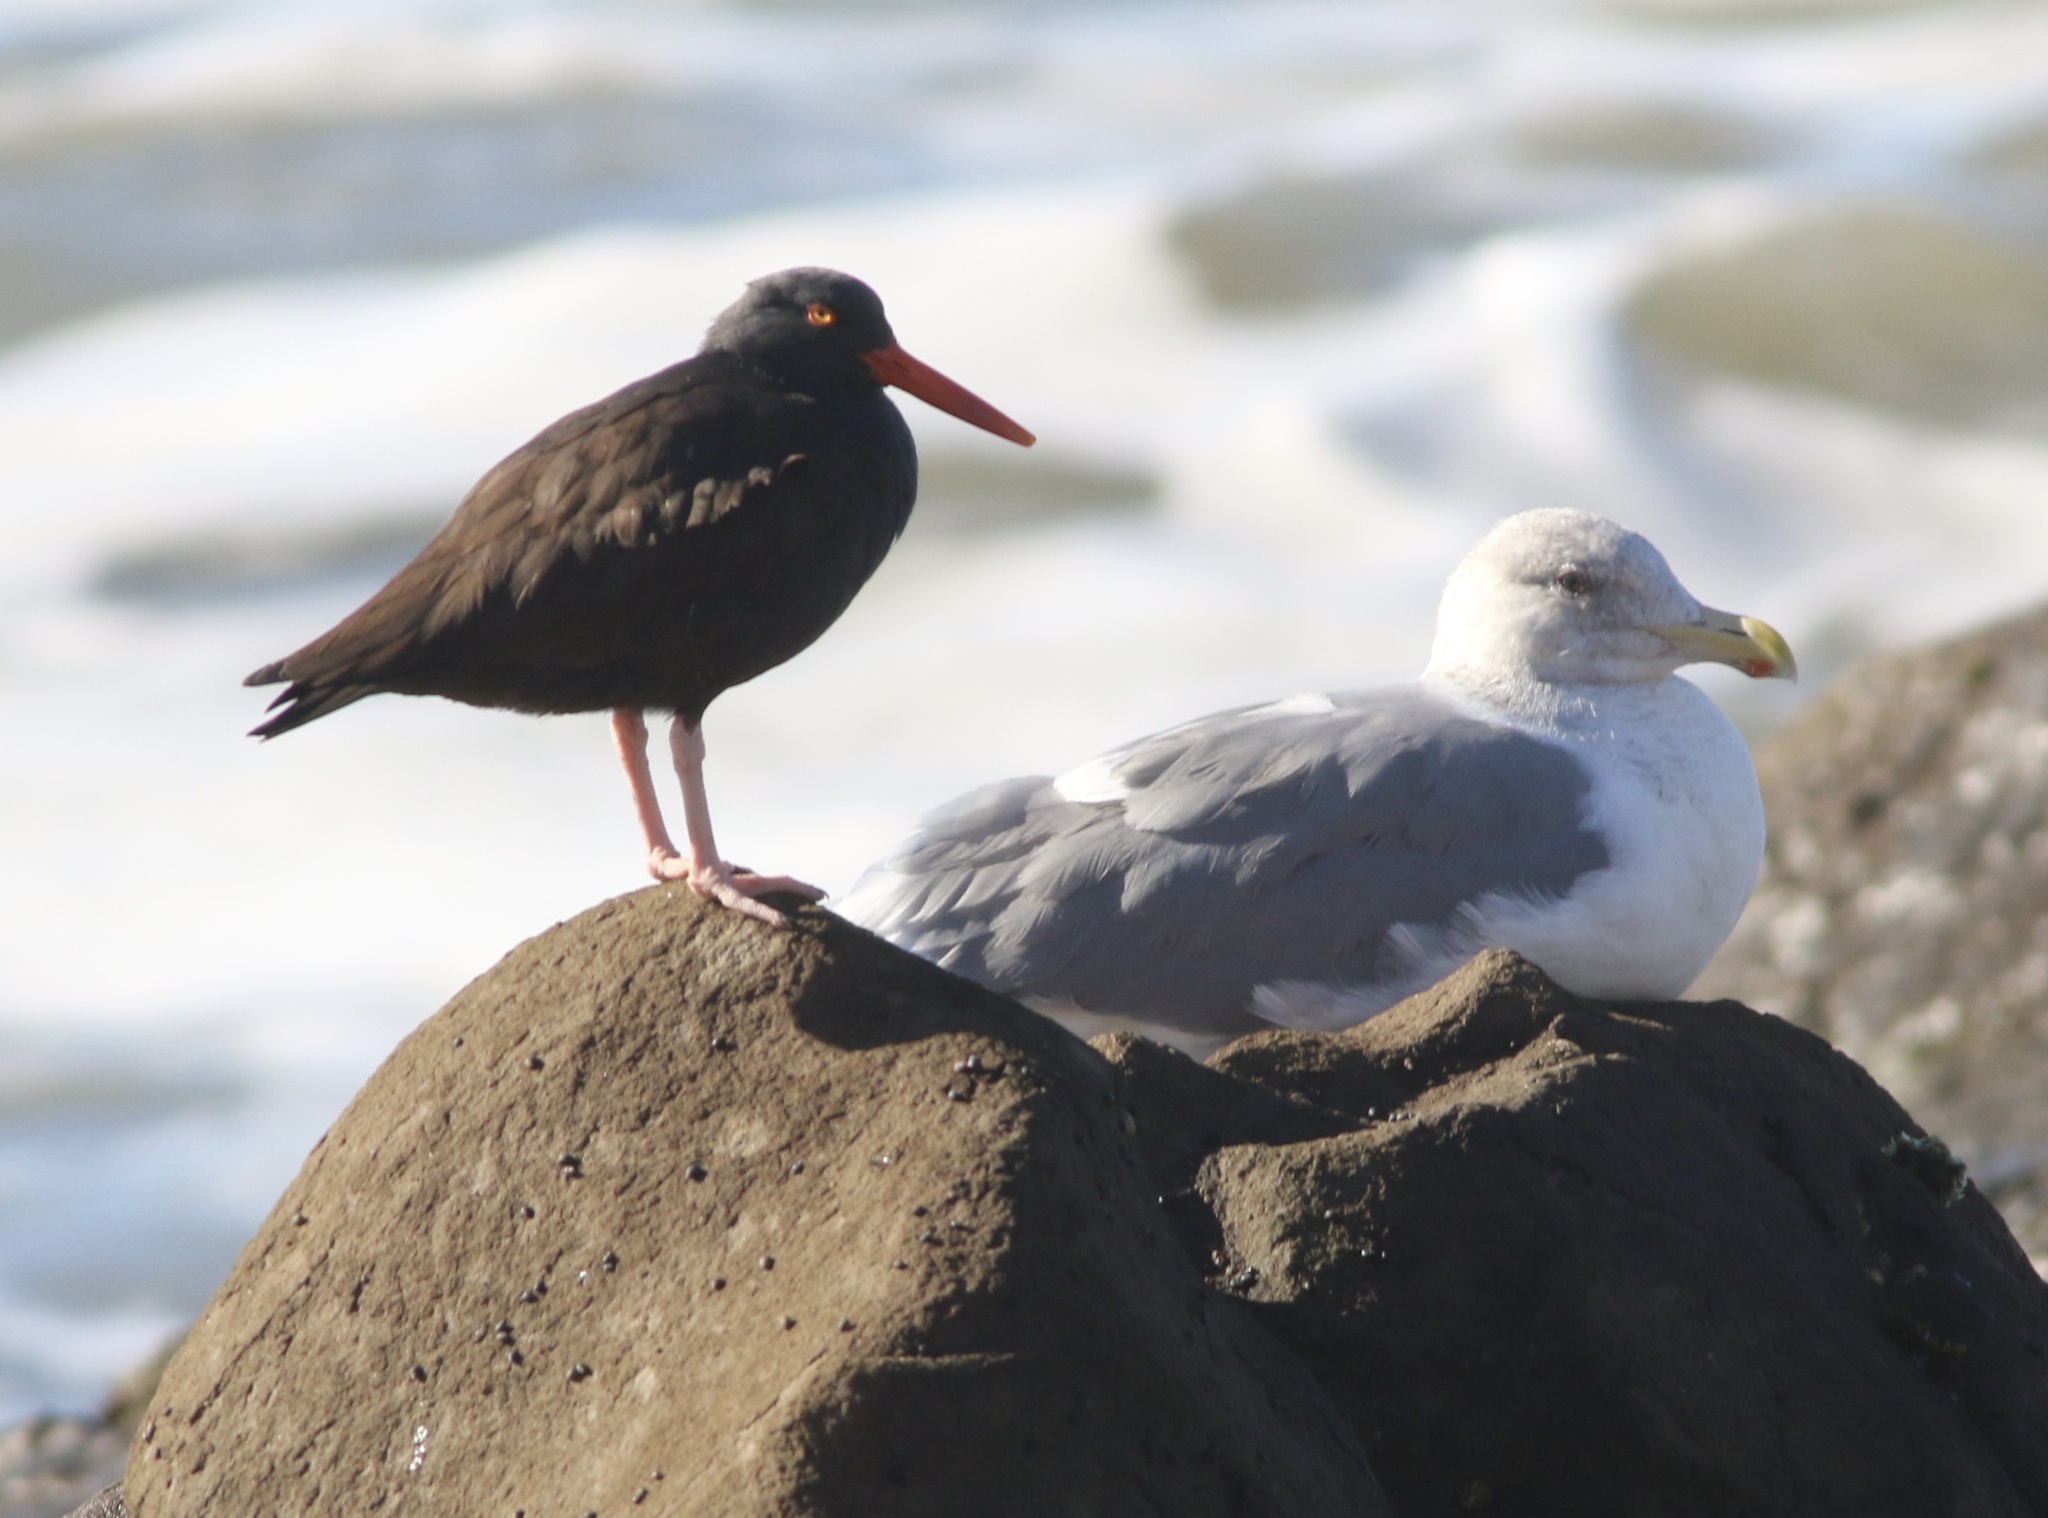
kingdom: Animalia
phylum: Chordata
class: Aves
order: Charadriiformes
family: Haematopodidae
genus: Haematopus
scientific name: Haematopus bachmani
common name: Black oystercatcher
